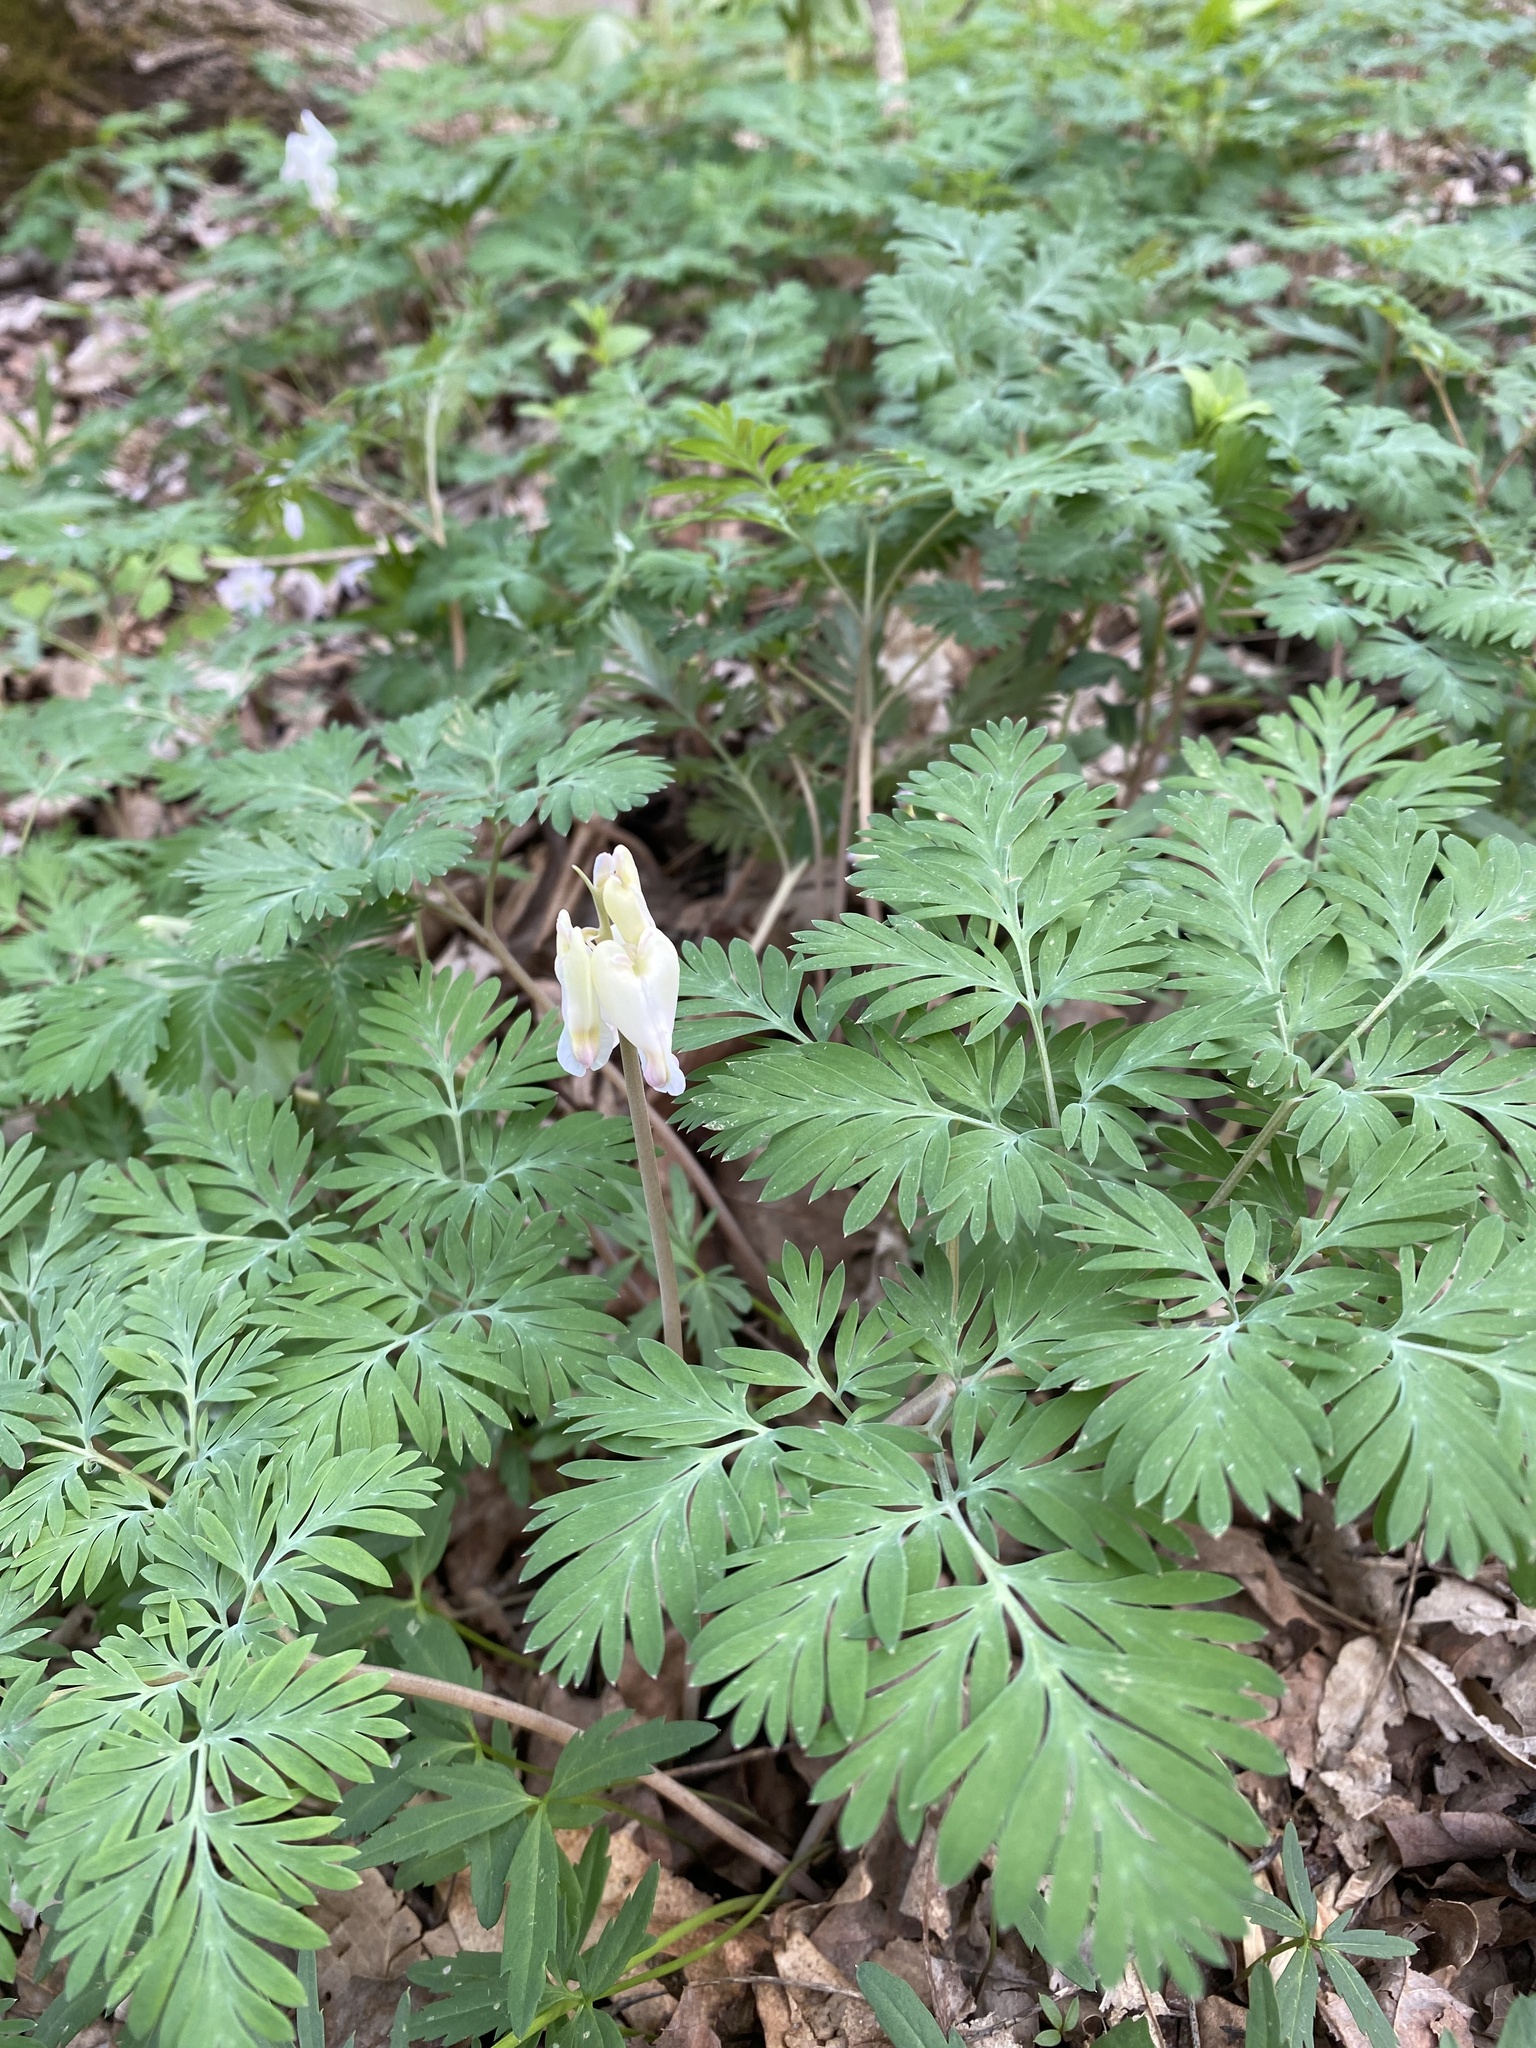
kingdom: Plantae
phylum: Tracheophyta
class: Magnoliopsida
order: Ranunculales
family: Papaveraceae
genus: Dicentra
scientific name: Dicentra canadensis
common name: Squirrel-corn
